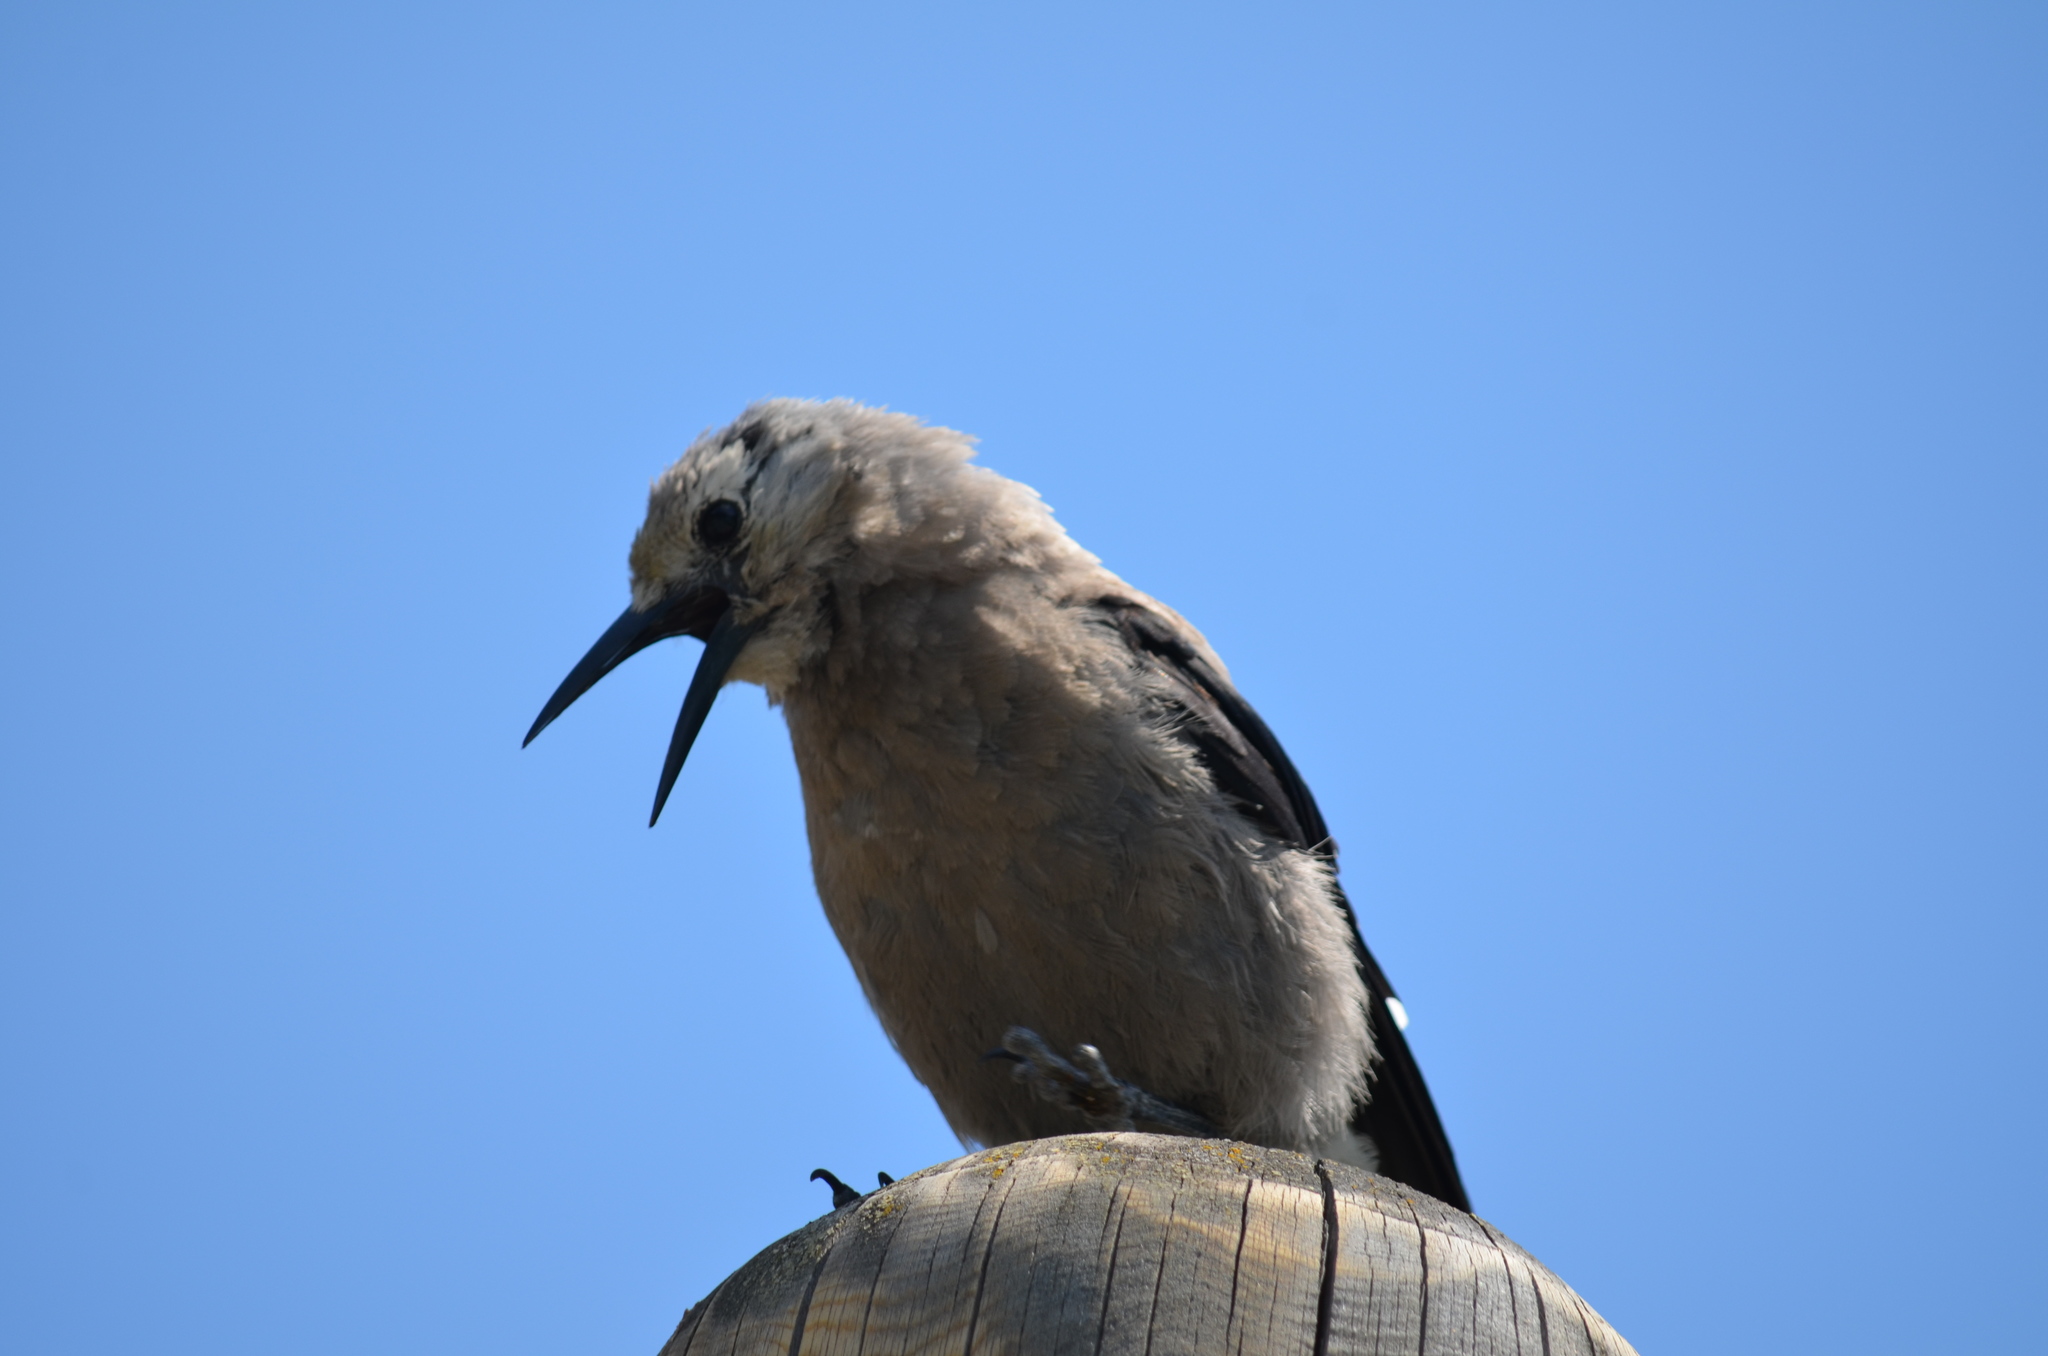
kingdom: Animalia
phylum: Chordata
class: Aves
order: Passeriformes
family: Corvidae
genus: Nucifraga
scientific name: Nucifraga columbiana
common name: Clark's nutcracker
